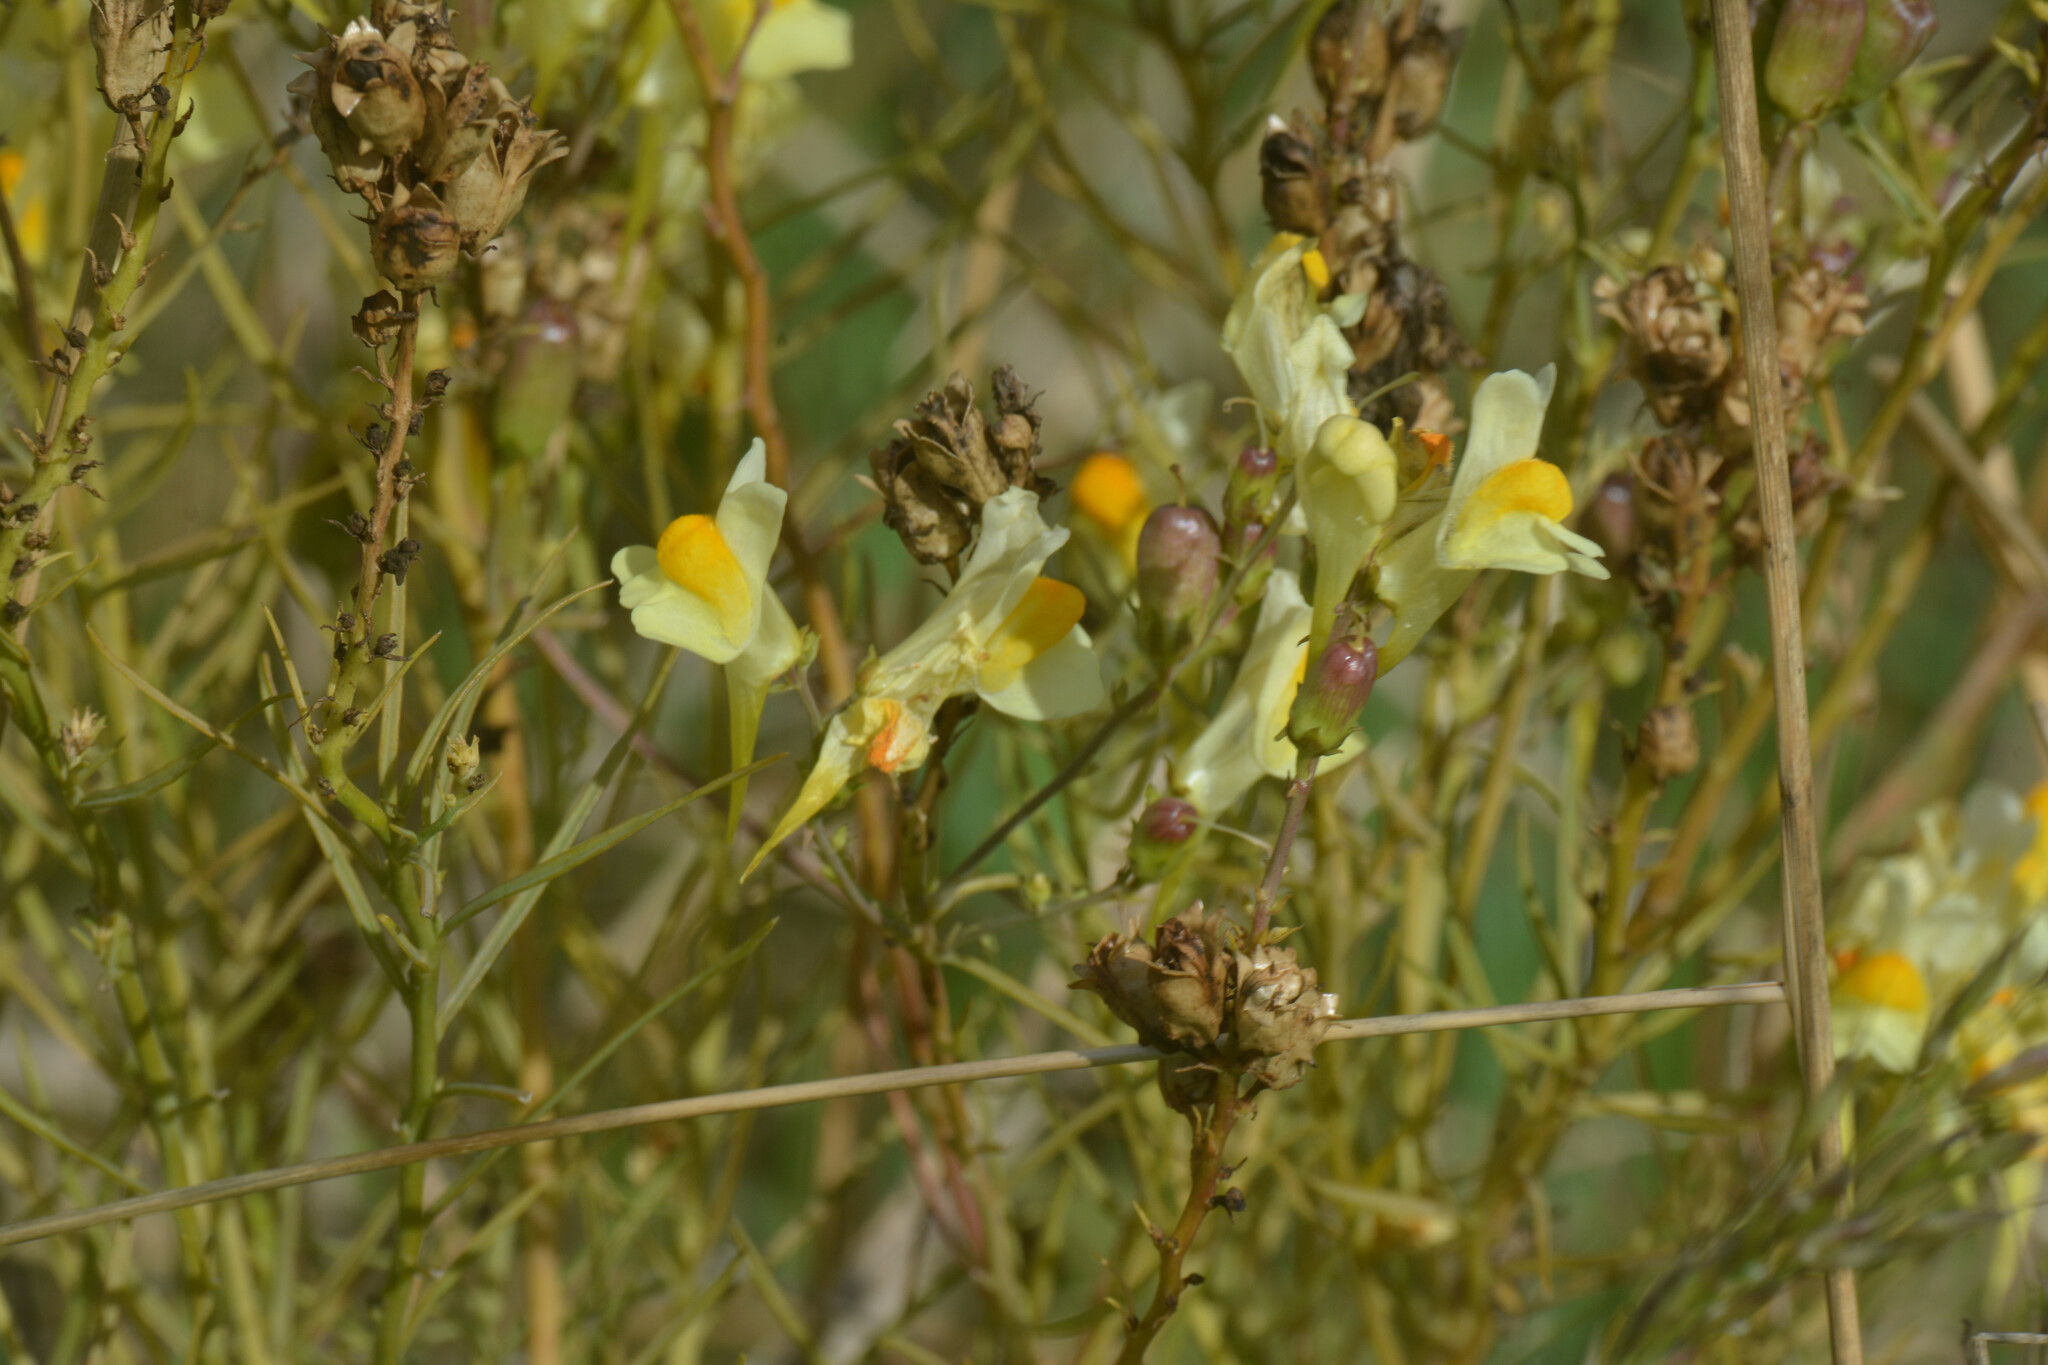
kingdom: Plantae
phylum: Tracheophyta
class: Magnoliopsida
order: Lamiales
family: Plantaginaceae
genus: Linaria
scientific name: Linaria vulgaris
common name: Butter and eggs
